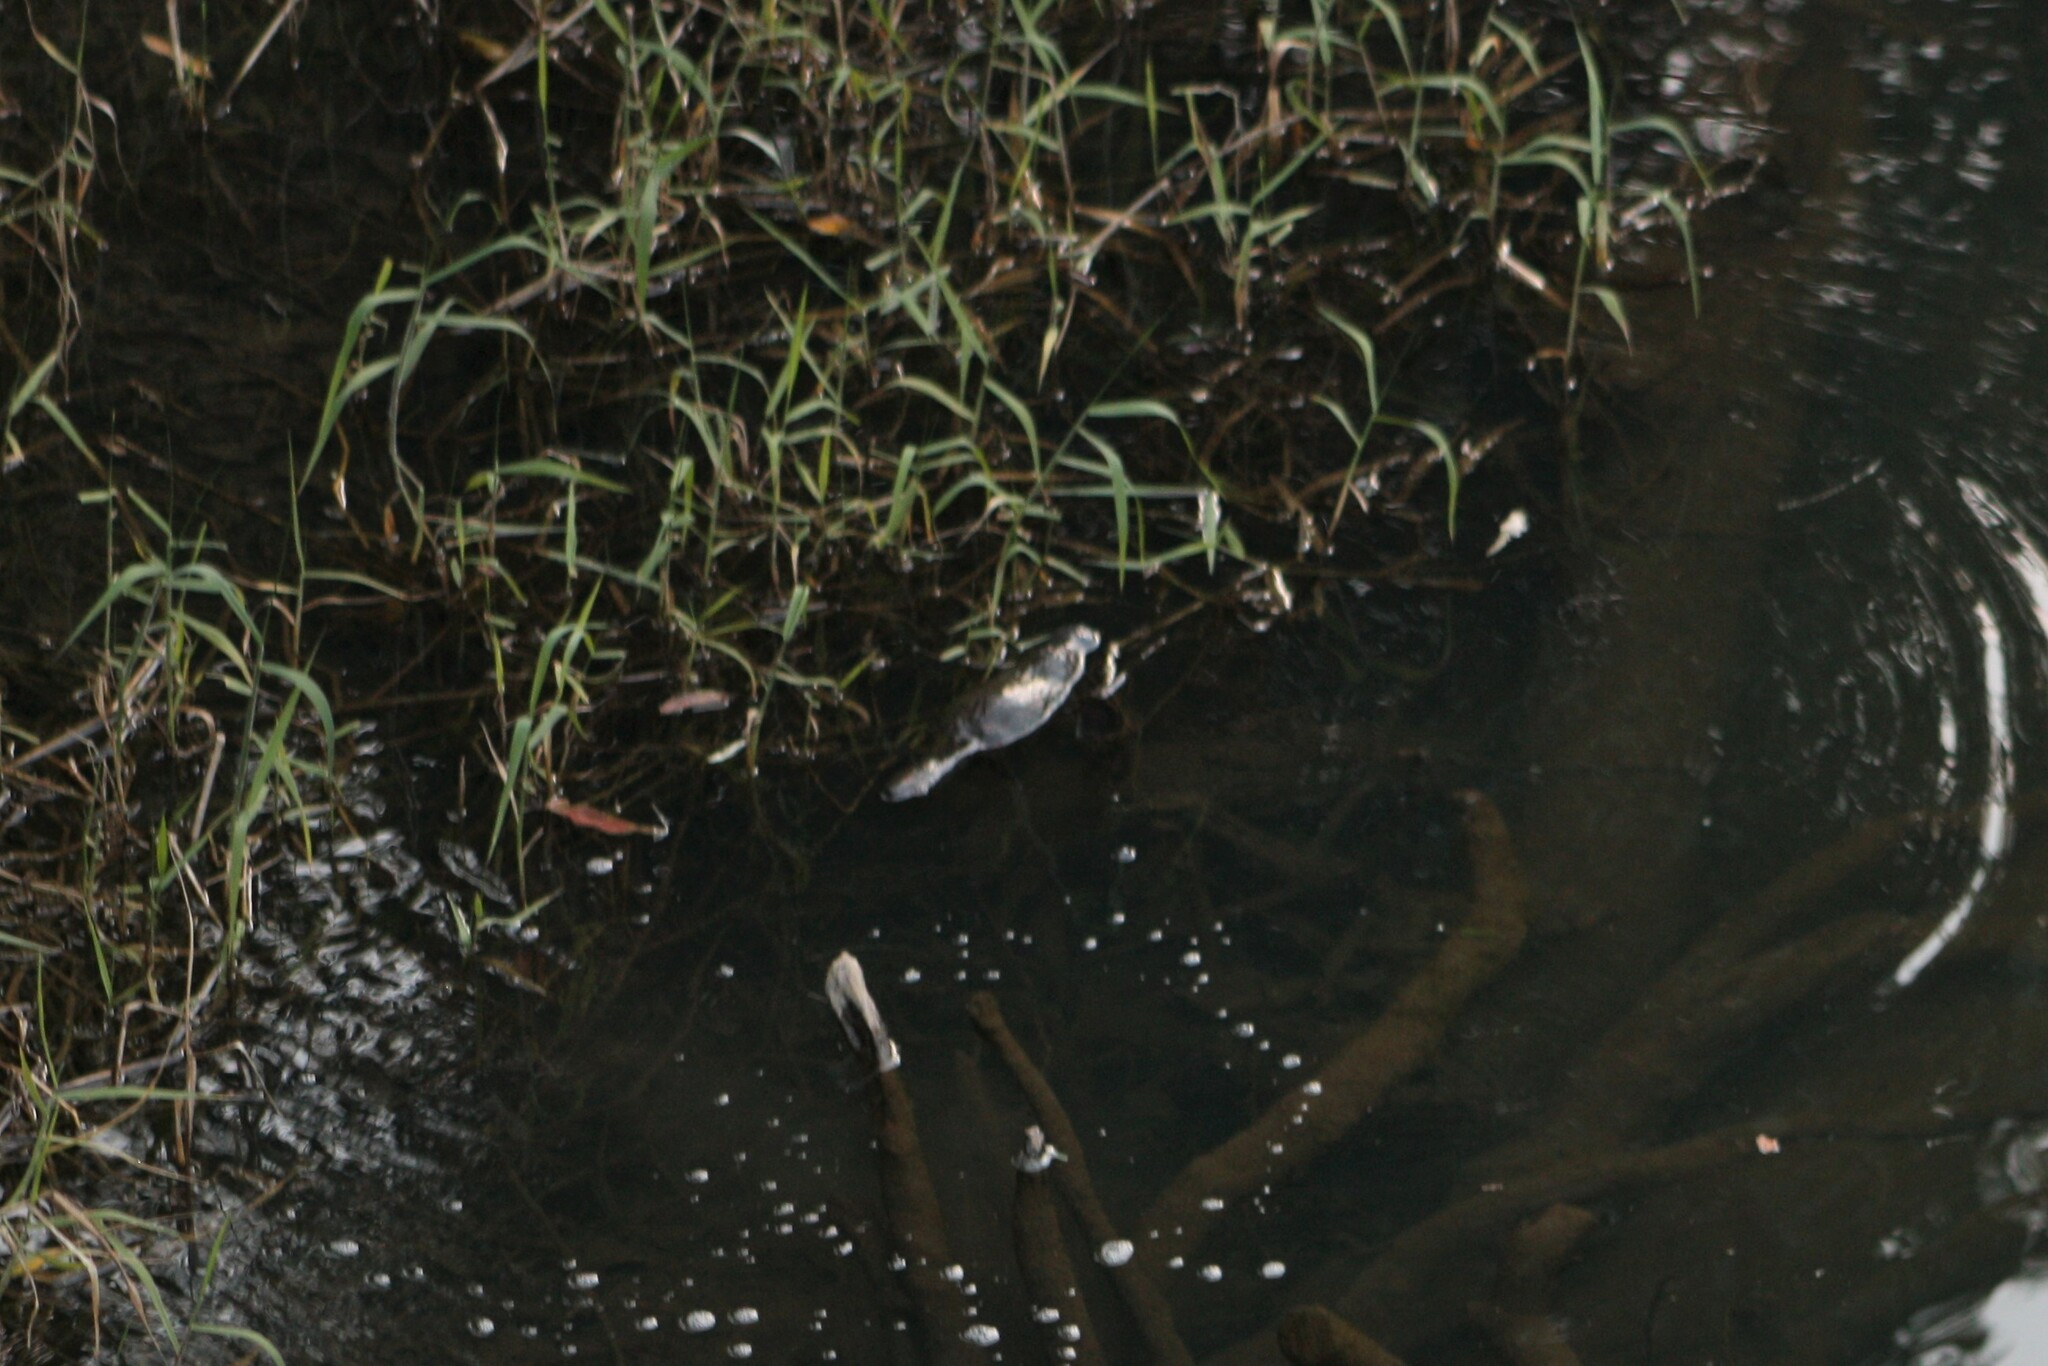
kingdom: Animalia
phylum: Chordata
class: Mammalia
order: Monotremata
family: Ornithorhynchidae
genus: Ornithorhynchus
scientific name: Ornithorhynchus anatinus
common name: Platypus
